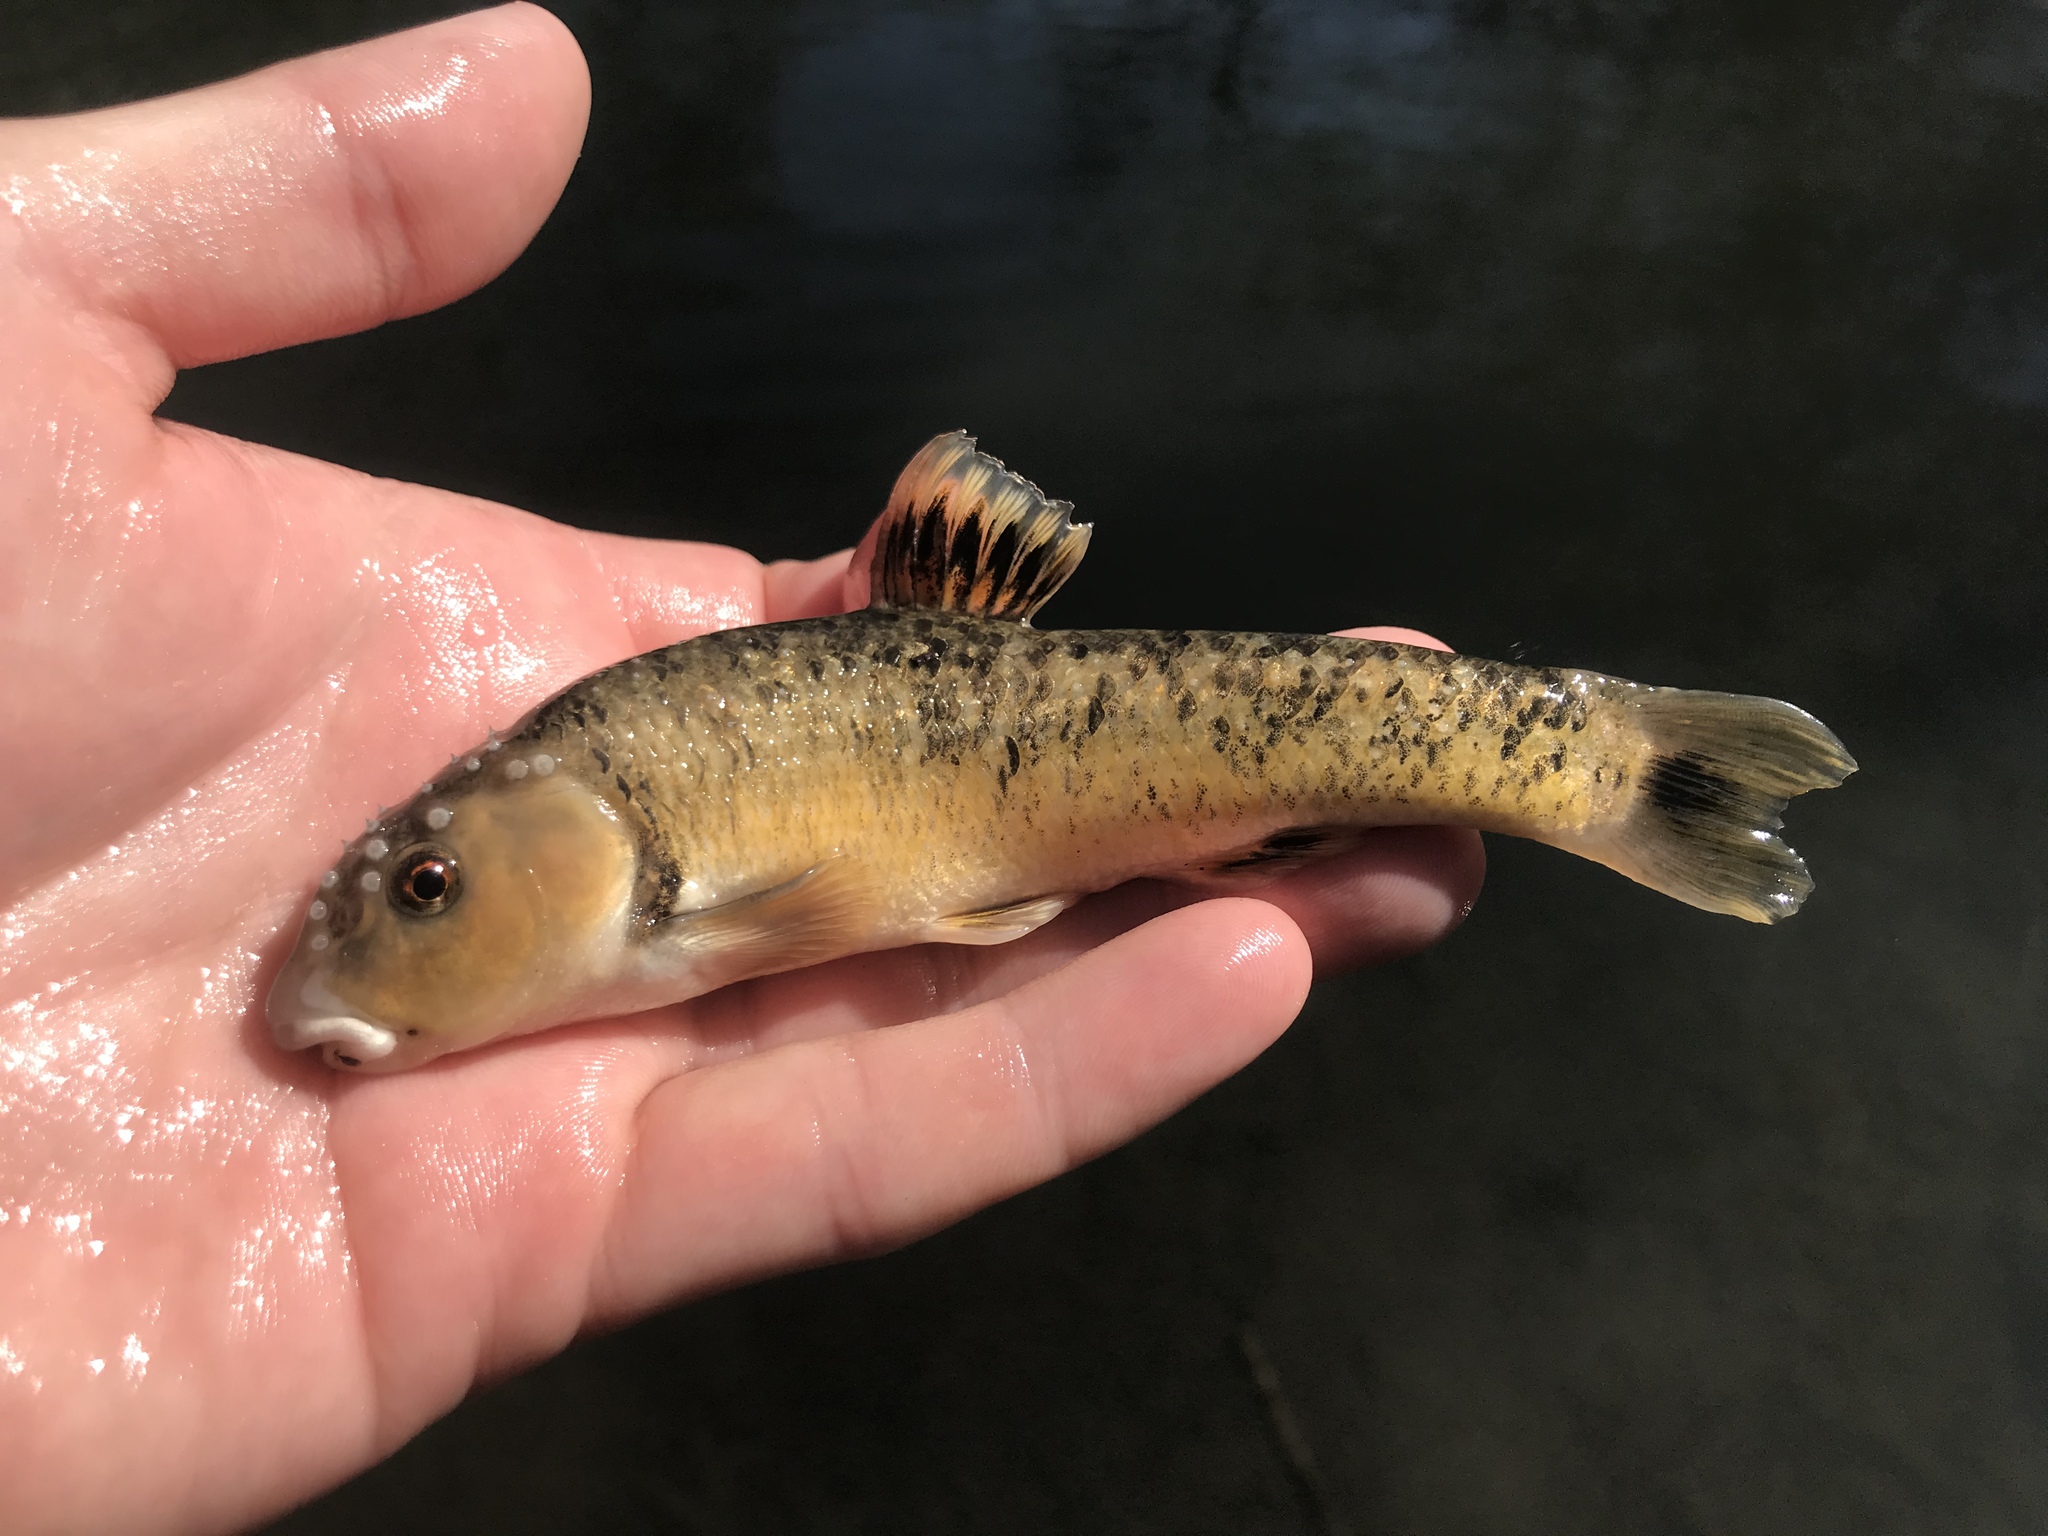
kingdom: Animalia
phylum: Chordata
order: Cypriniformes
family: Cyprinidae
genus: Campostoma
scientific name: Campostoma anomalum
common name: Central stoneroller
